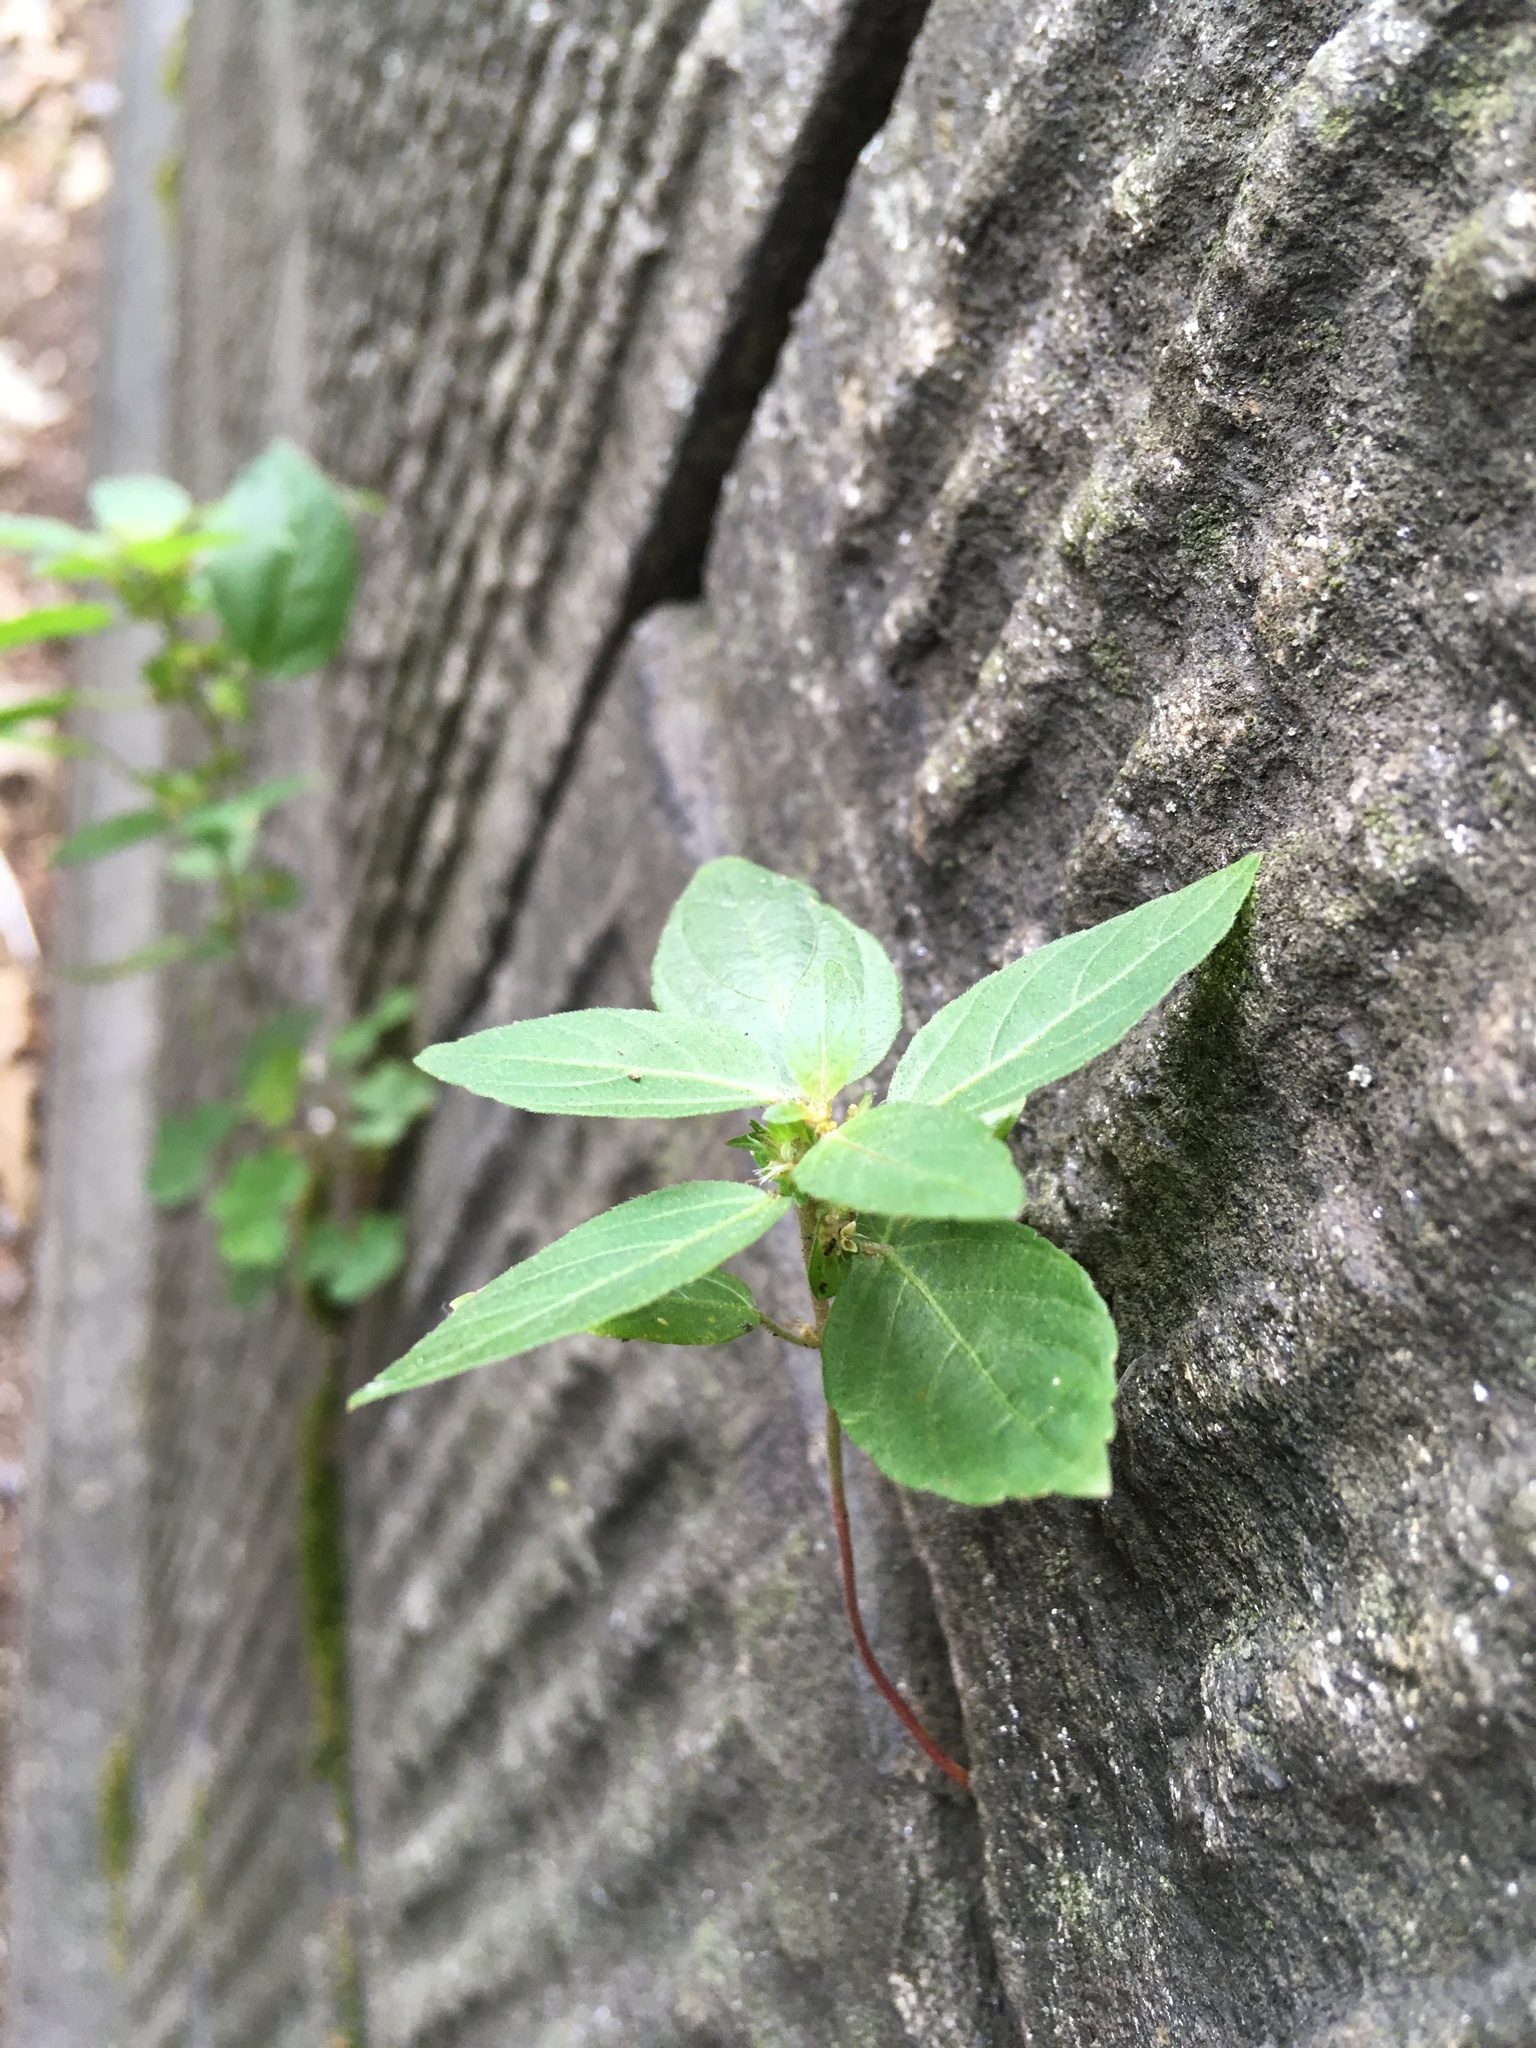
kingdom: Plantae
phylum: Tracheophyta
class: Magnoliopsida
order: Malpighiales
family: Euphorbiaceae
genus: Acalypha
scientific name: Acalypha rhomboidea
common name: Rhombic copperleaf
